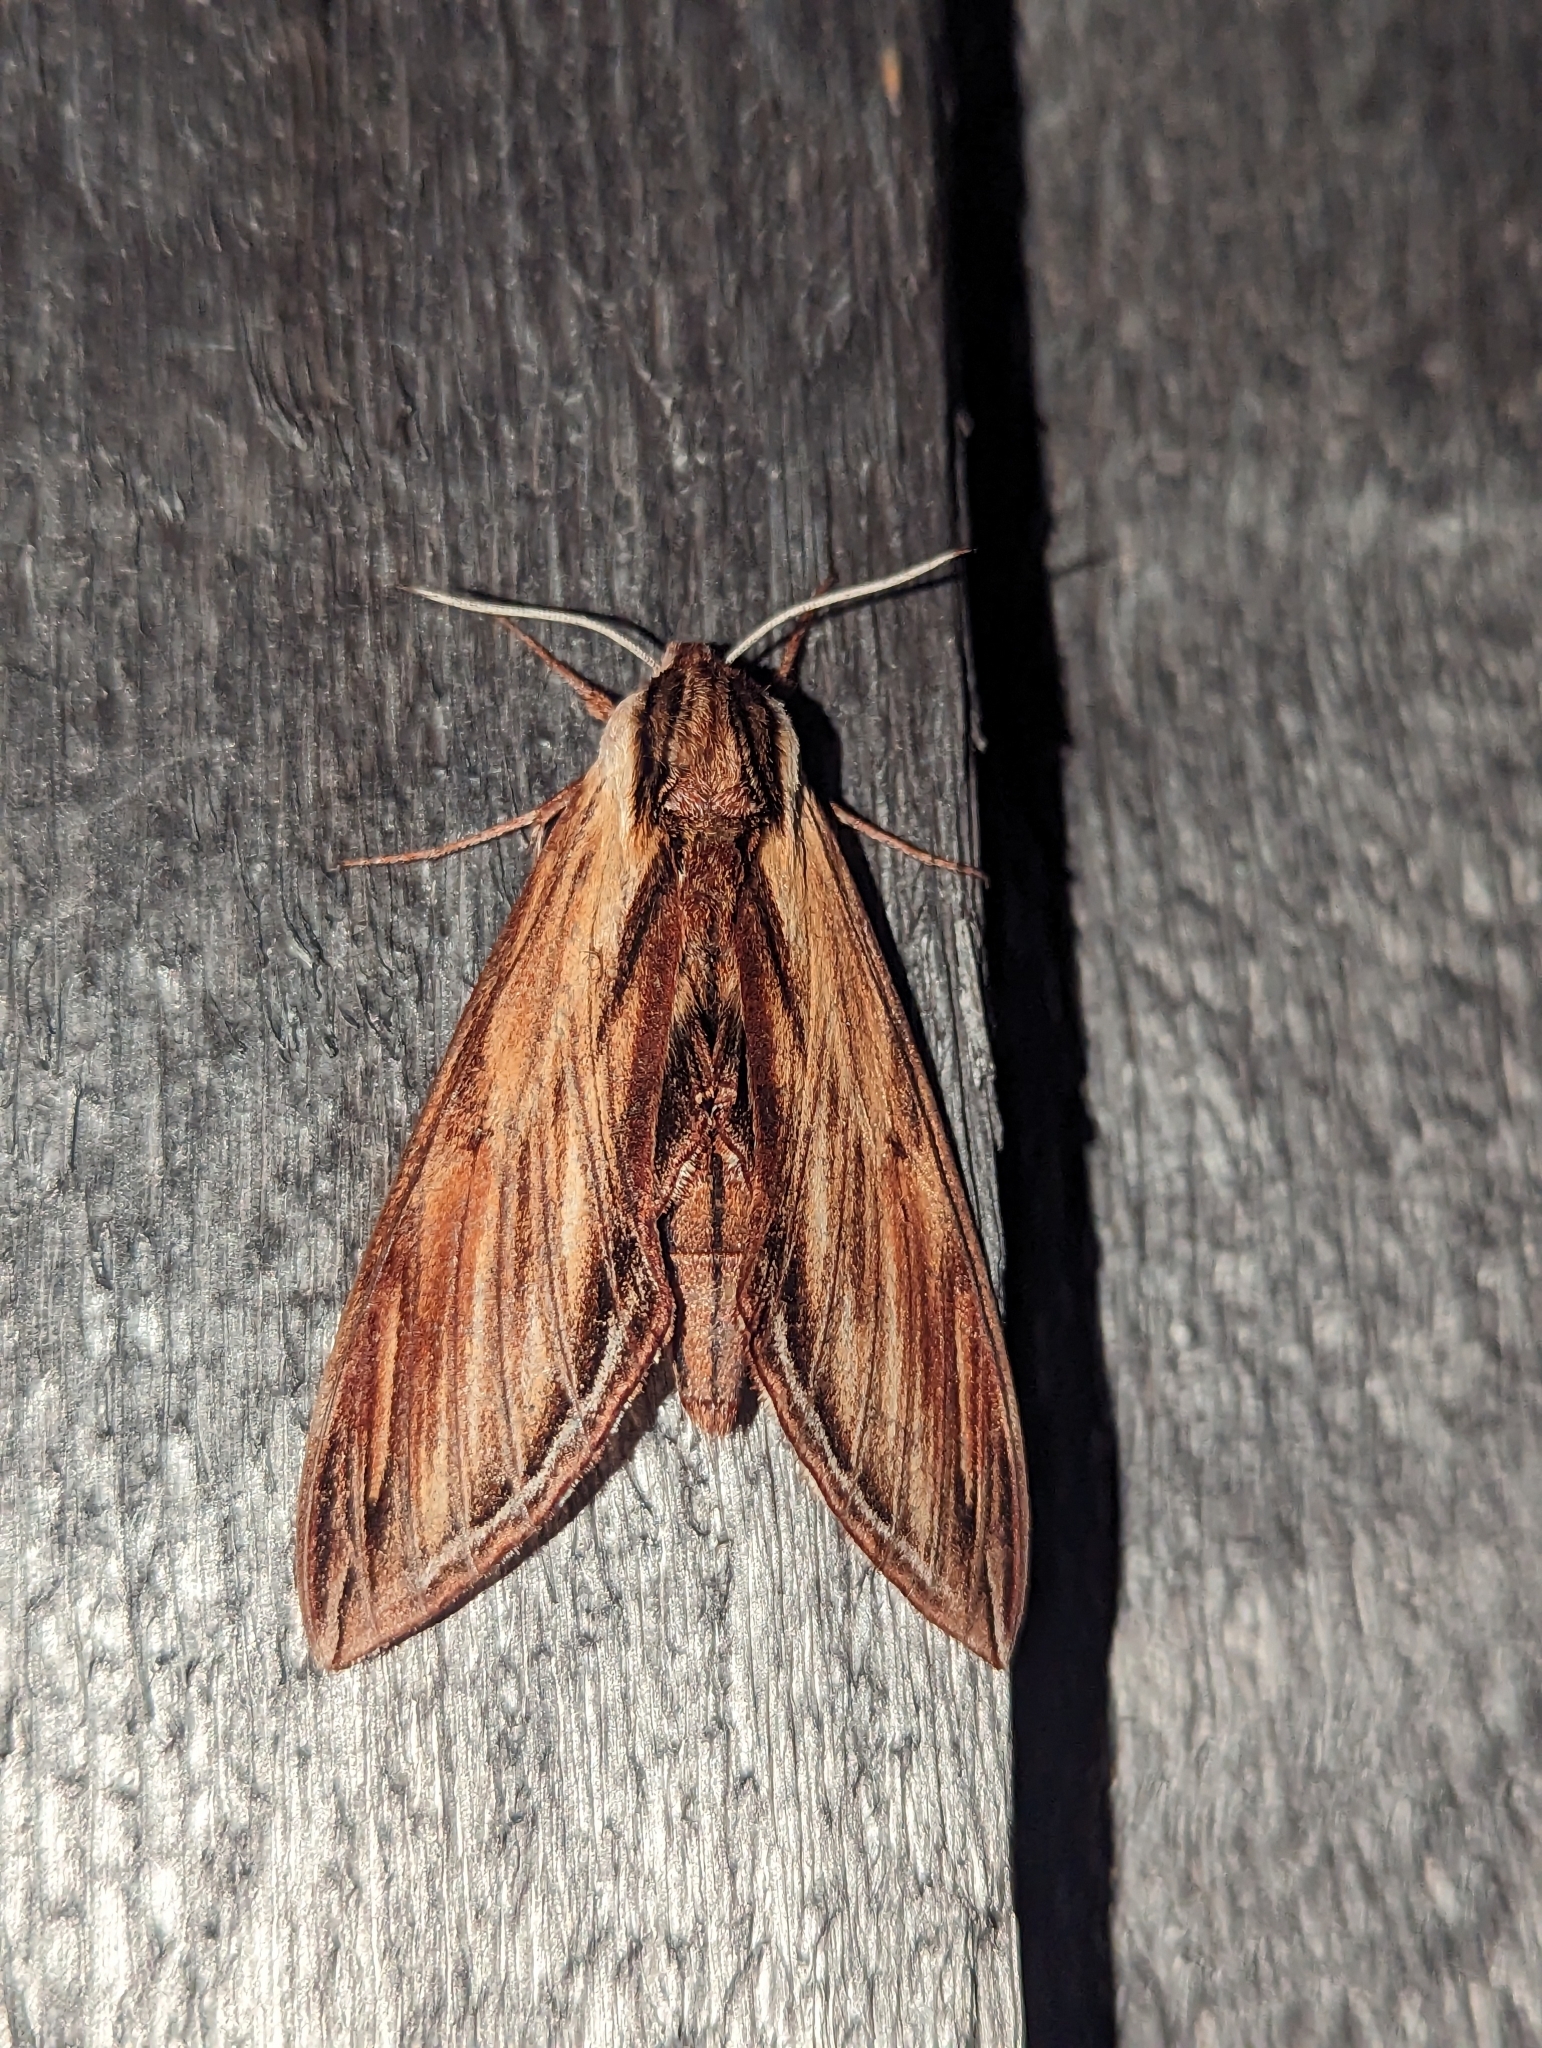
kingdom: Animalia
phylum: Arthropoda
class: Insecta
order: Lepidoptera
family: Sphingidae
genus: Sphinx
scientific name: Sphinx kalmiae
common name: Laurel sphinx
